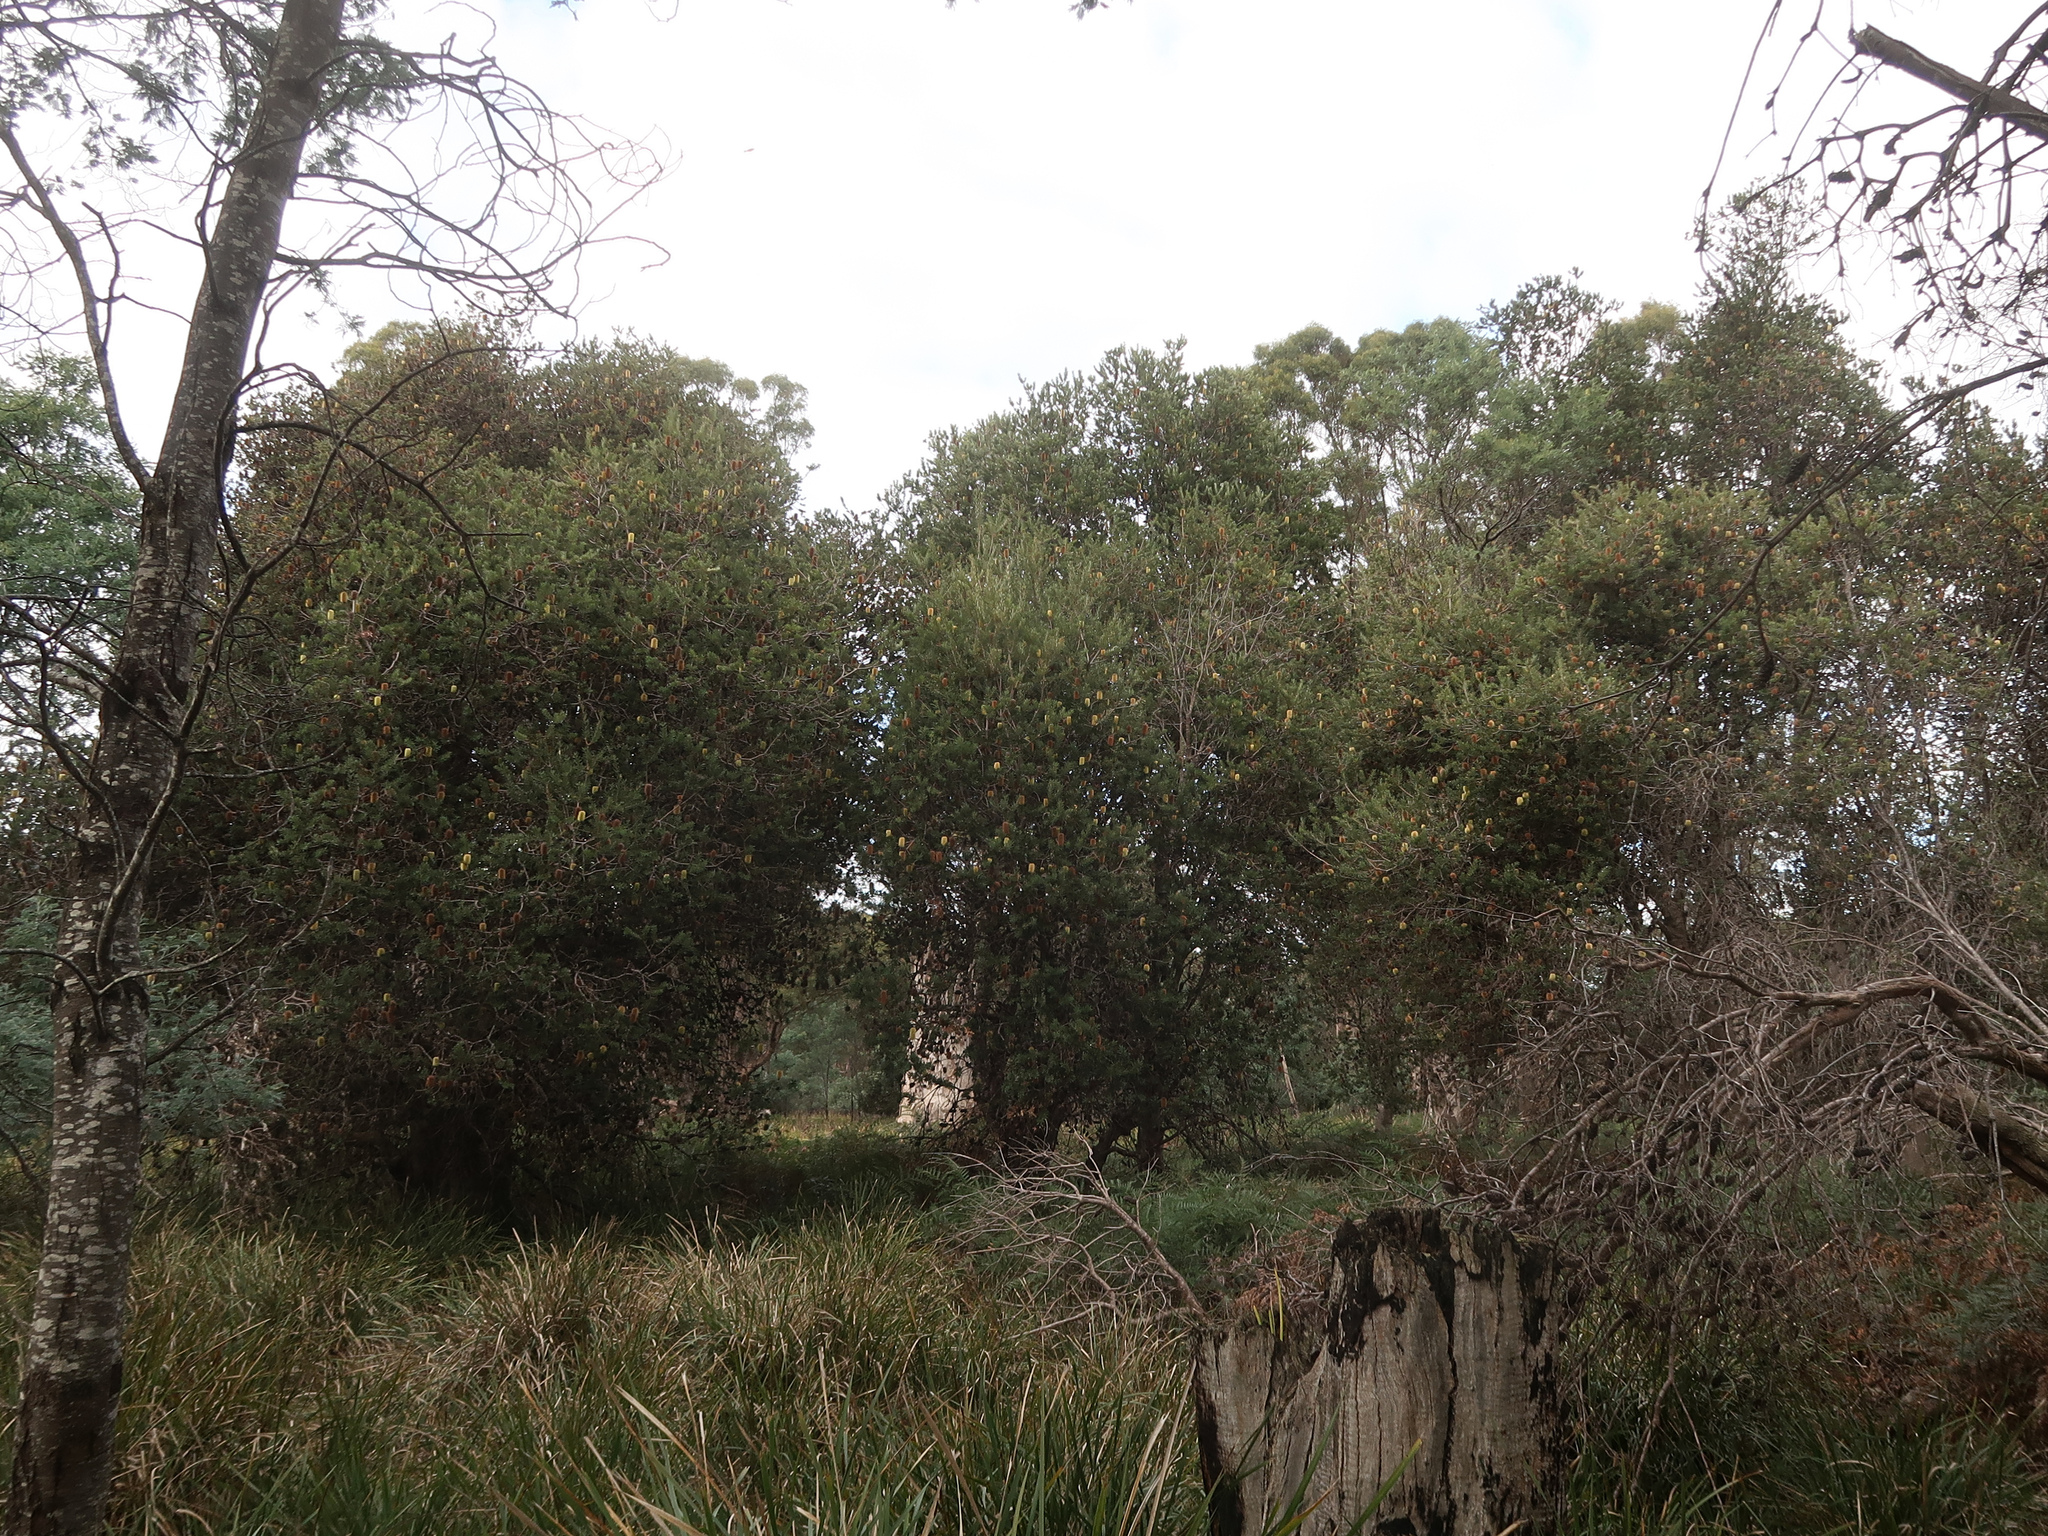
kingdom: Plantae
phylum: Tracheophyta
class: Magnoliopsida
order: Proteales
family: Proteaceae
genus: Banksia
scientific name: Banksia marginata
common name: Silver banksia
